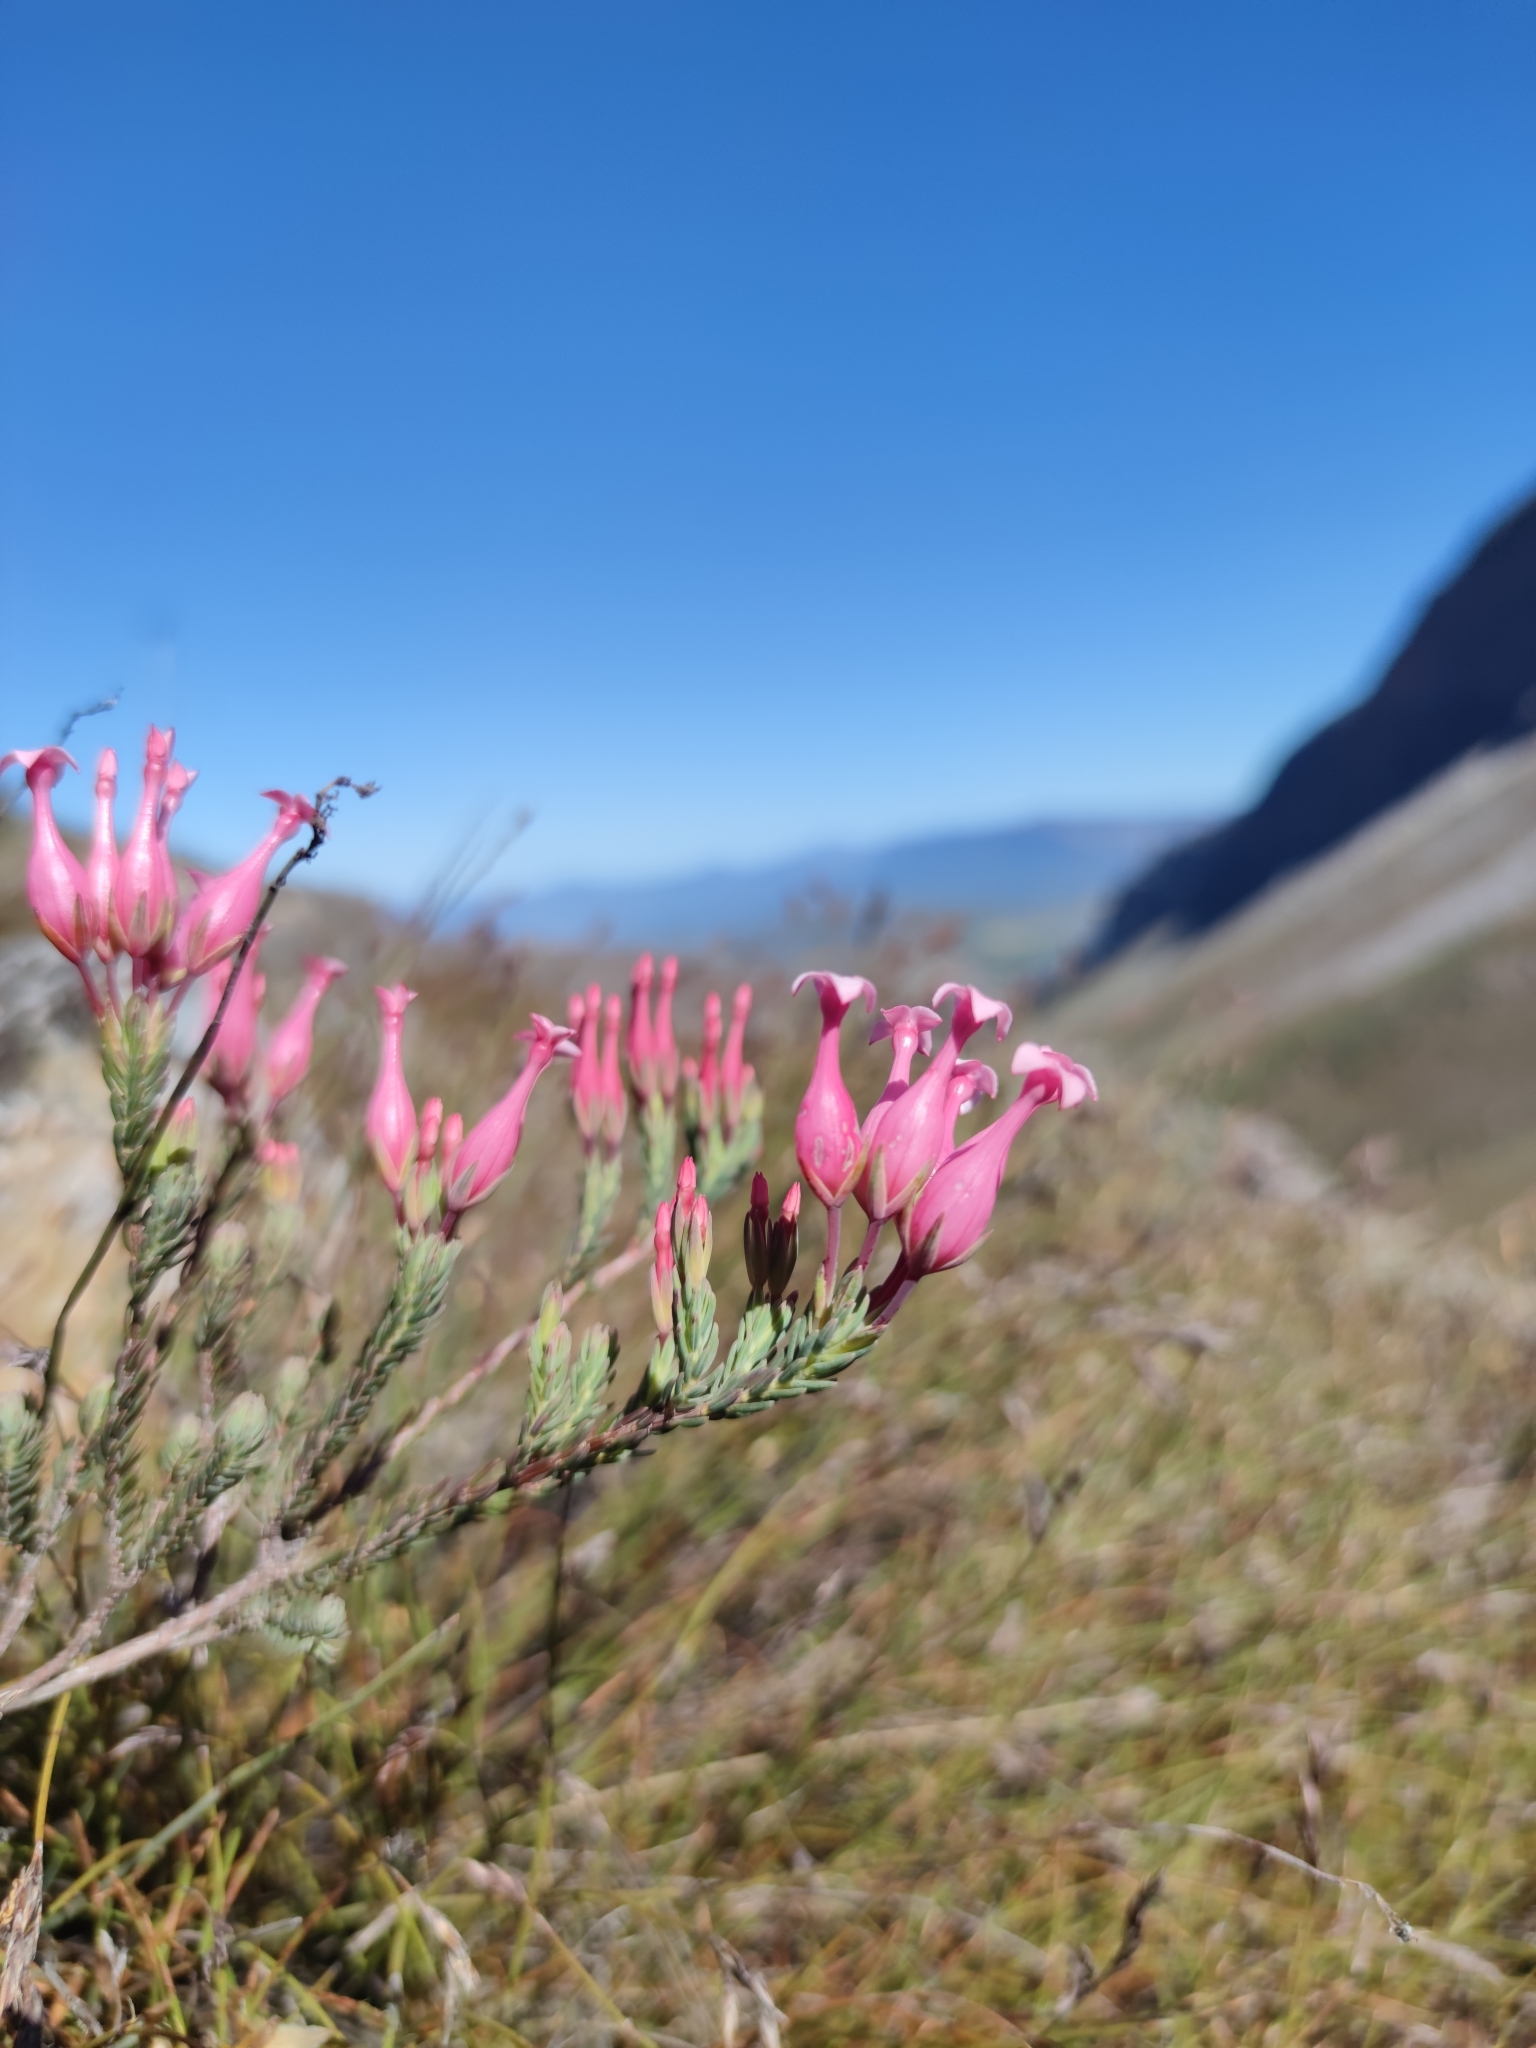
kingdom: Plantae
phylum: Tracheophyta
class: Magnoliopsida
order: Ericales
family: Ericaceae
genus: Erica
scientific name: Erica junonia
